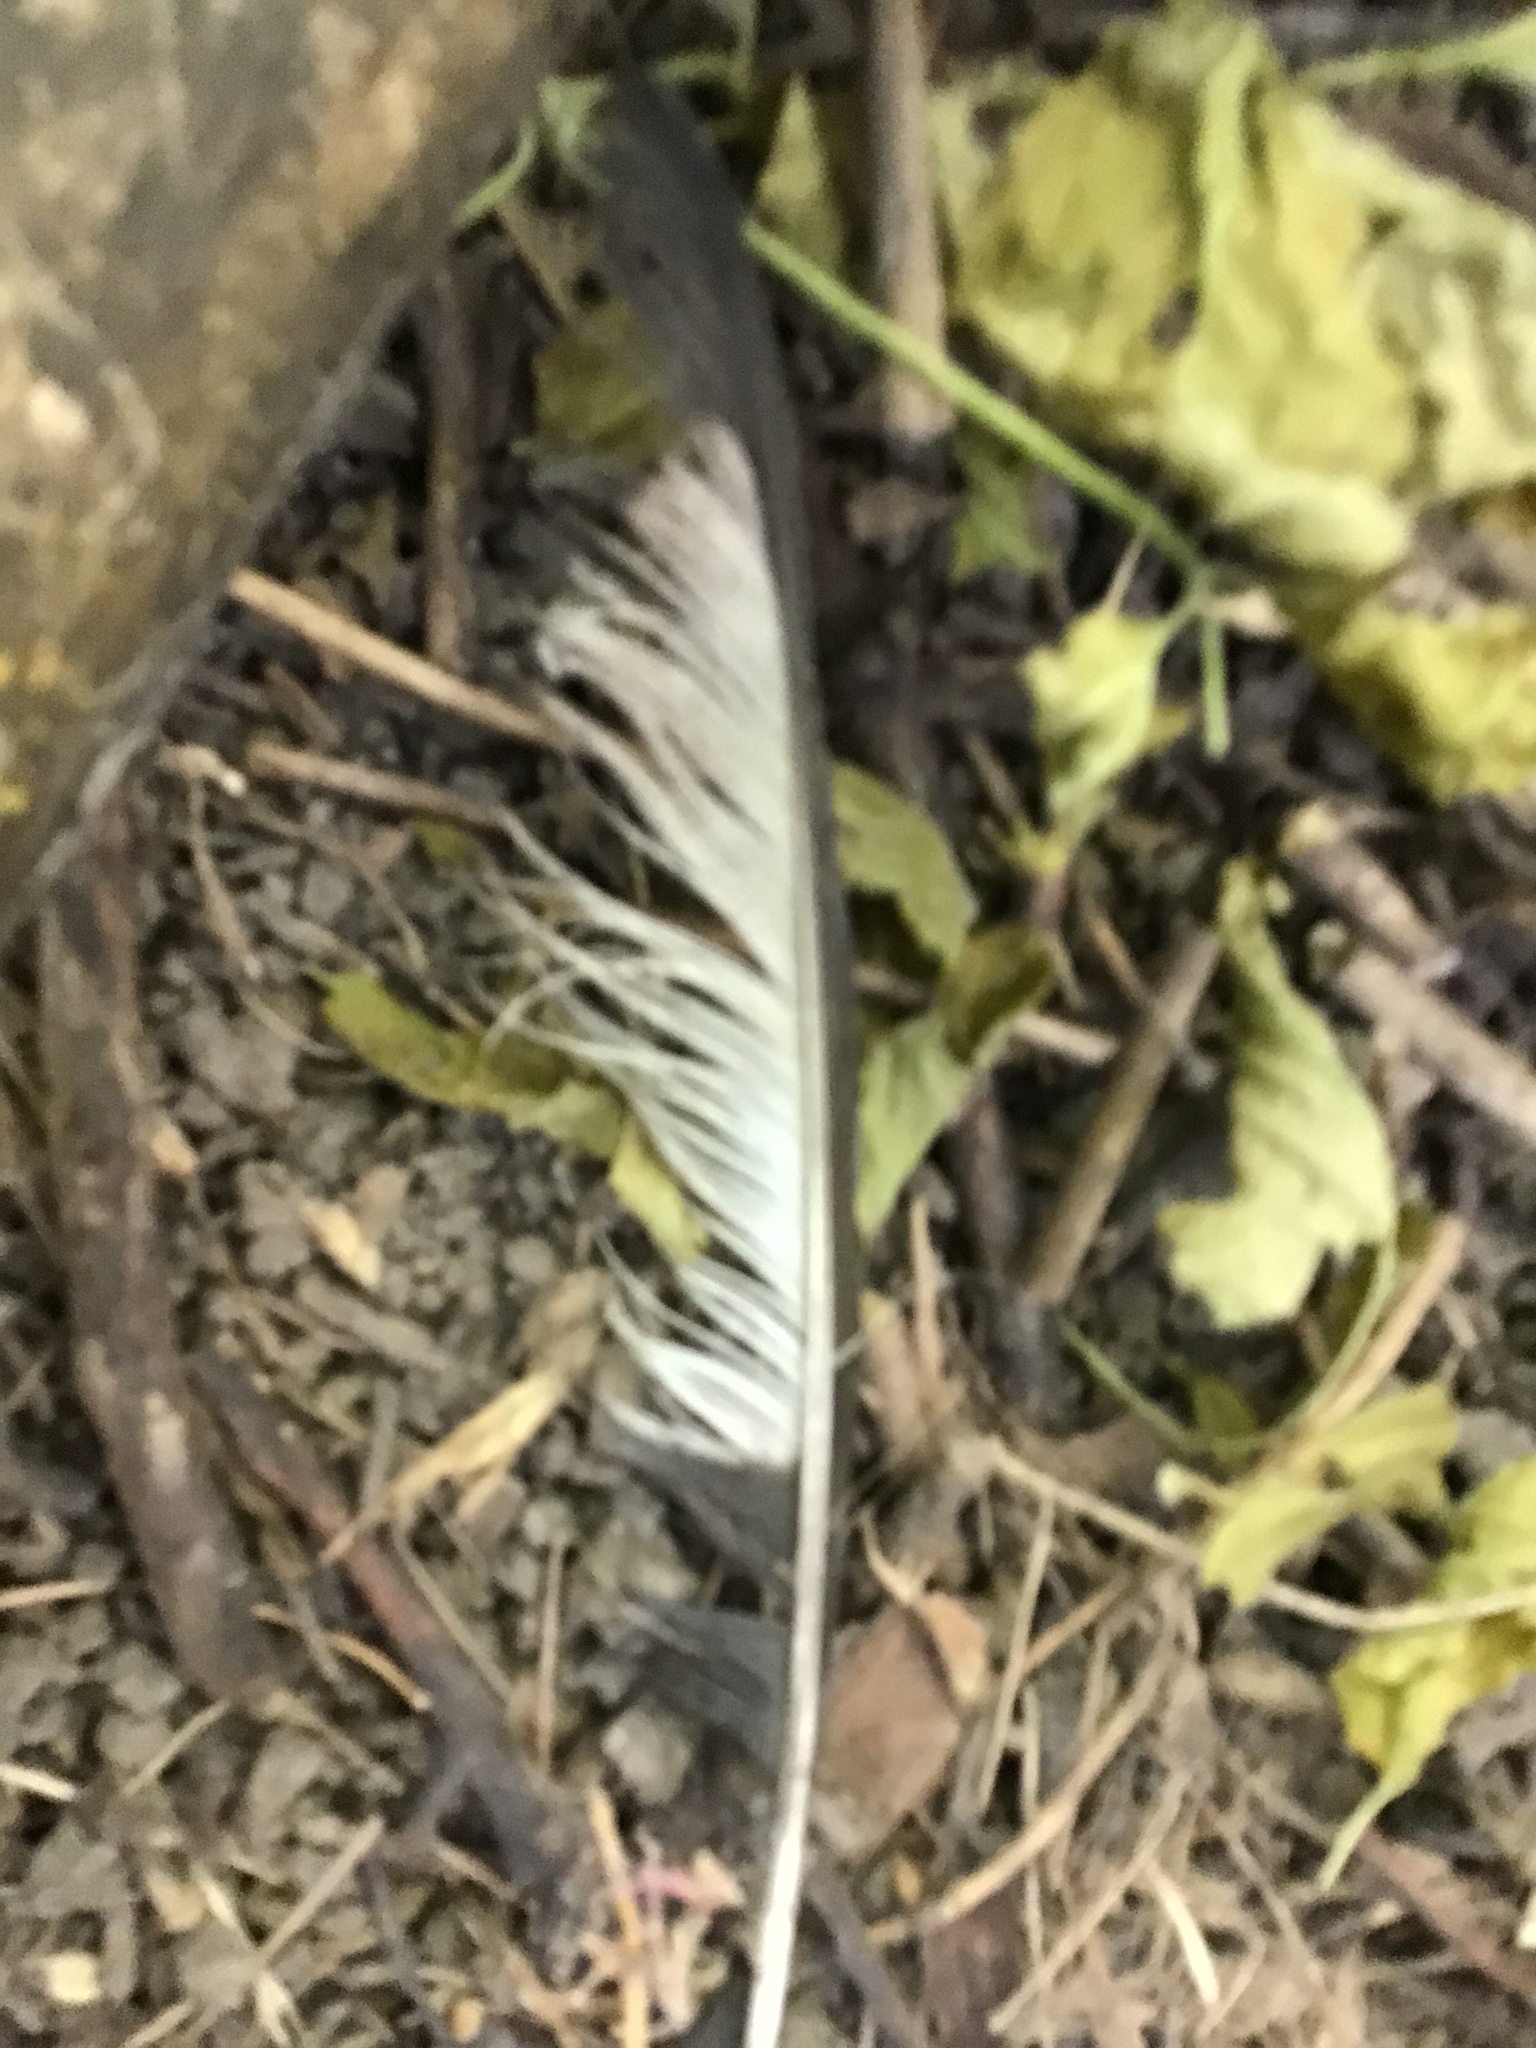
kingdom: Animalia
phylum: Chordata
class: Aves
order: Passeriformes
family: Corvidae
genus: Pica
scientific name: Pica hudsonia
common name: Black-billed magpie
